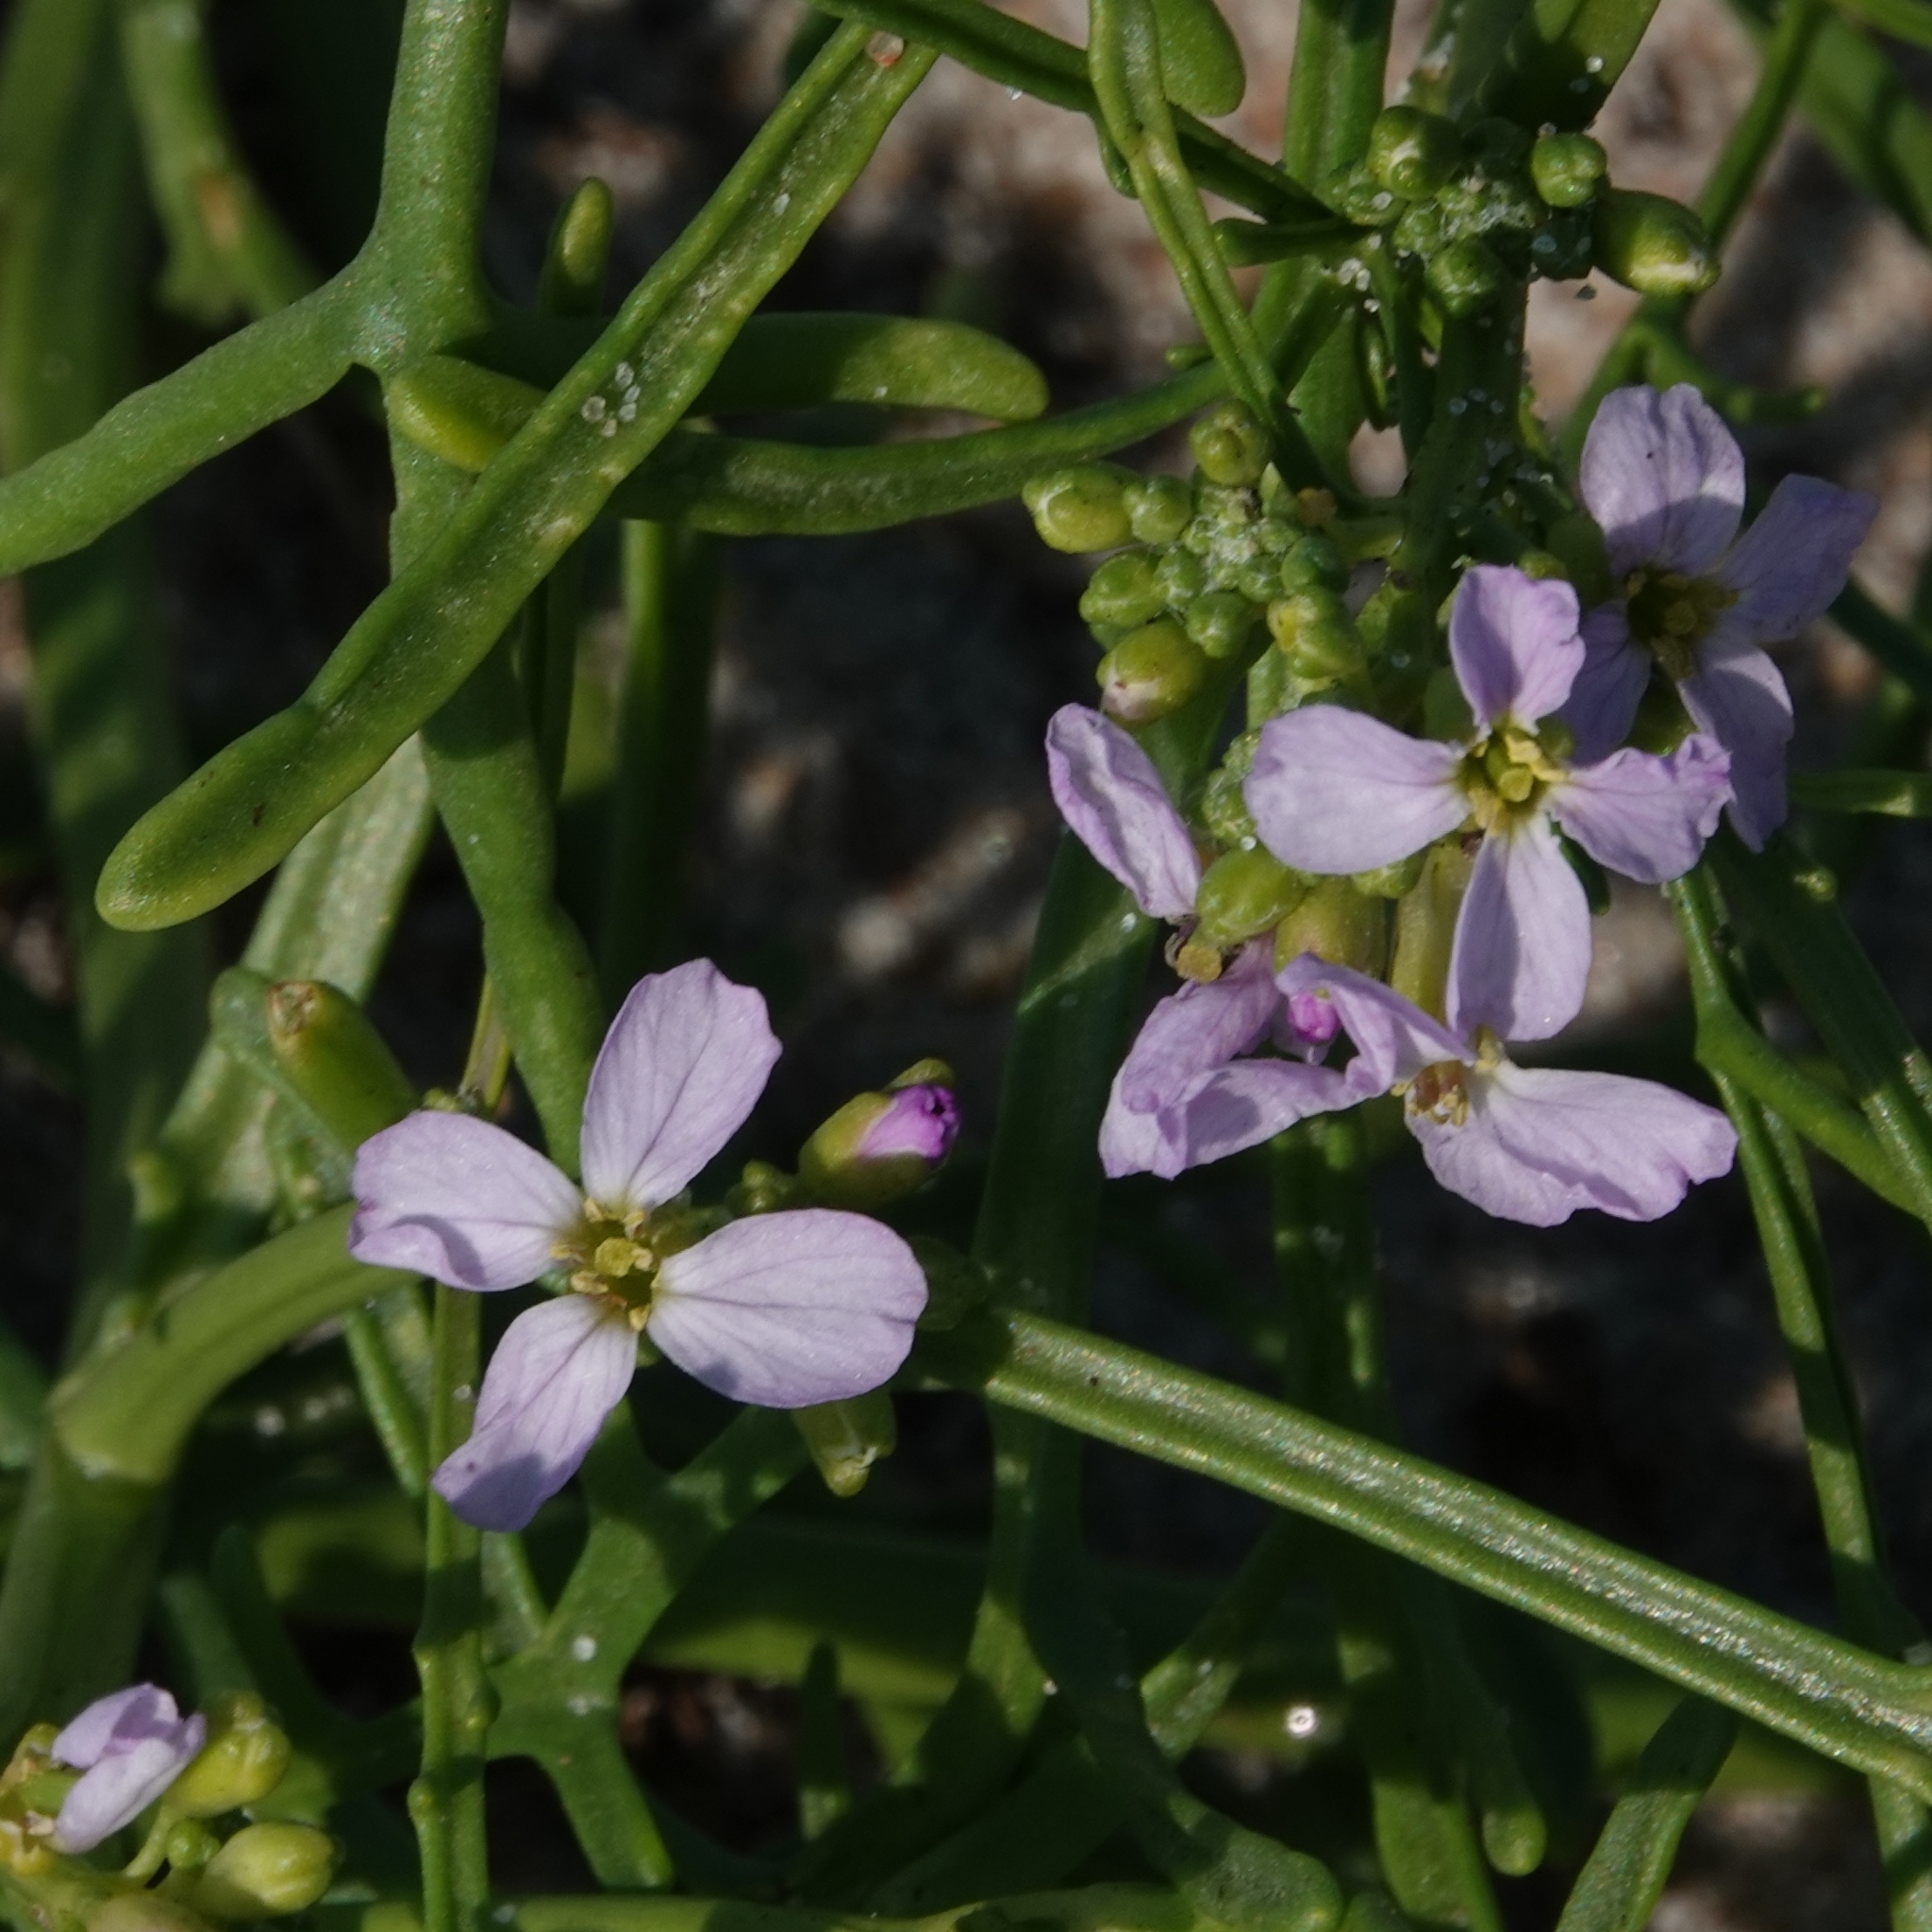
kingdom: Plantae
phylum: Tracheophyta
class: Magnoliopsida
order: Brassicales
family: Brassicaceae
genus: Cakile
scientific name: Cakile maritima
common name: Sea rocket
